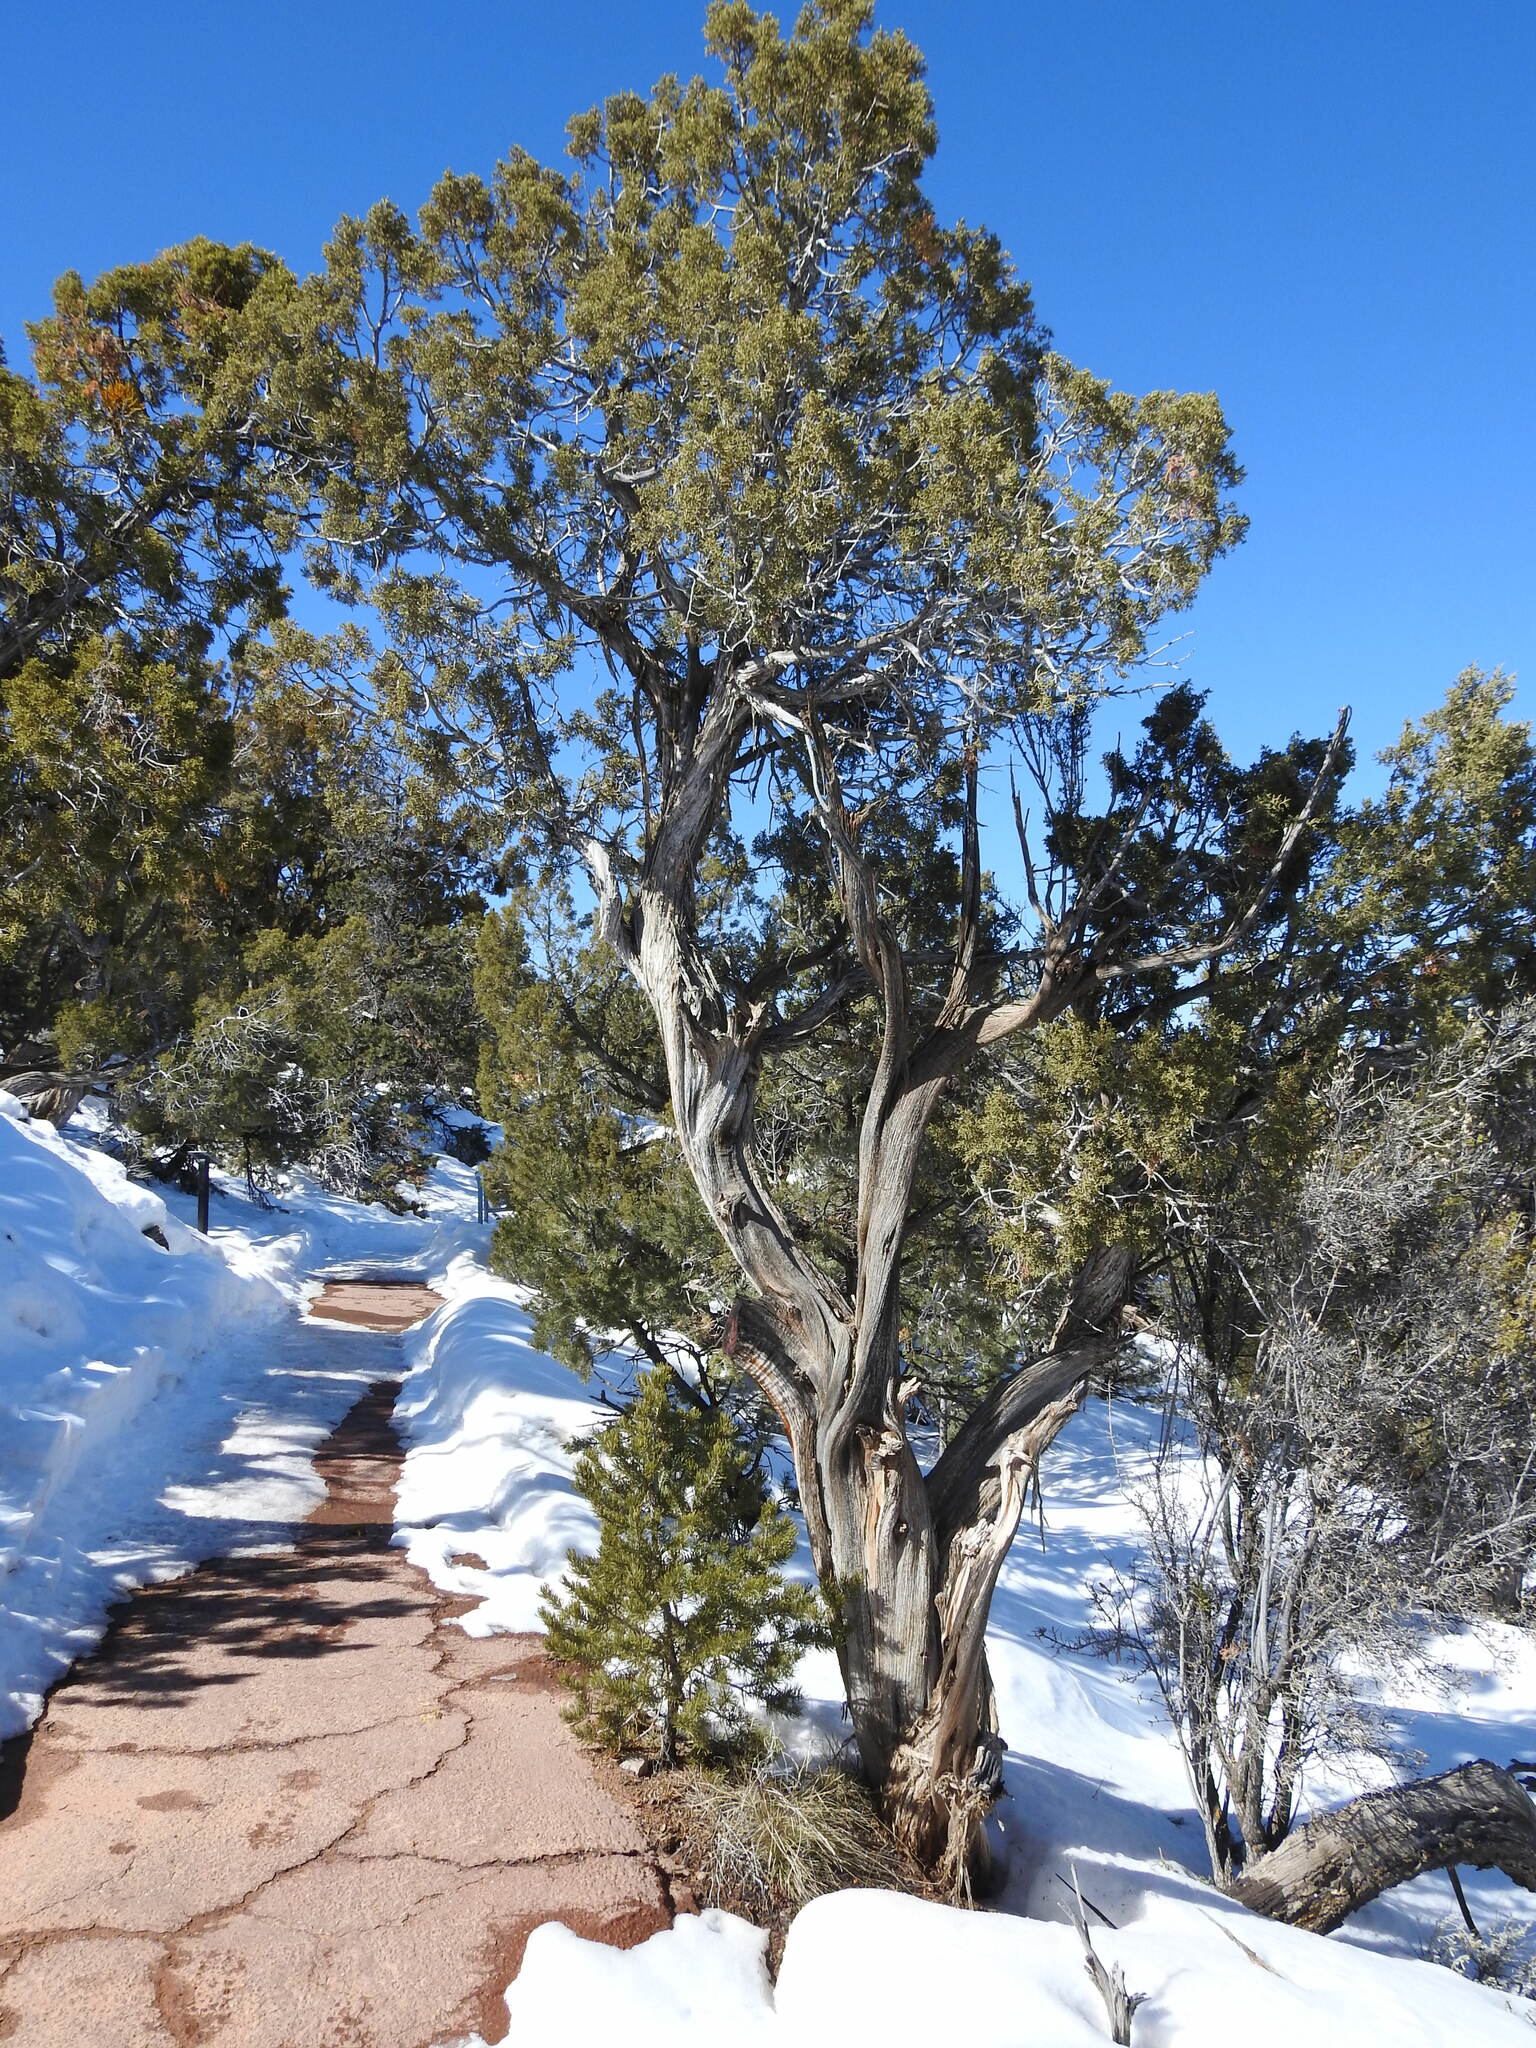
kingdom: Plantae
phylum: Tracheophyta
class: Pinopsida
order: Pinales
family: Cupressaceae
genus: Juniperus
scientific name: Juniperus osteosperma
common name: Utah juniper
